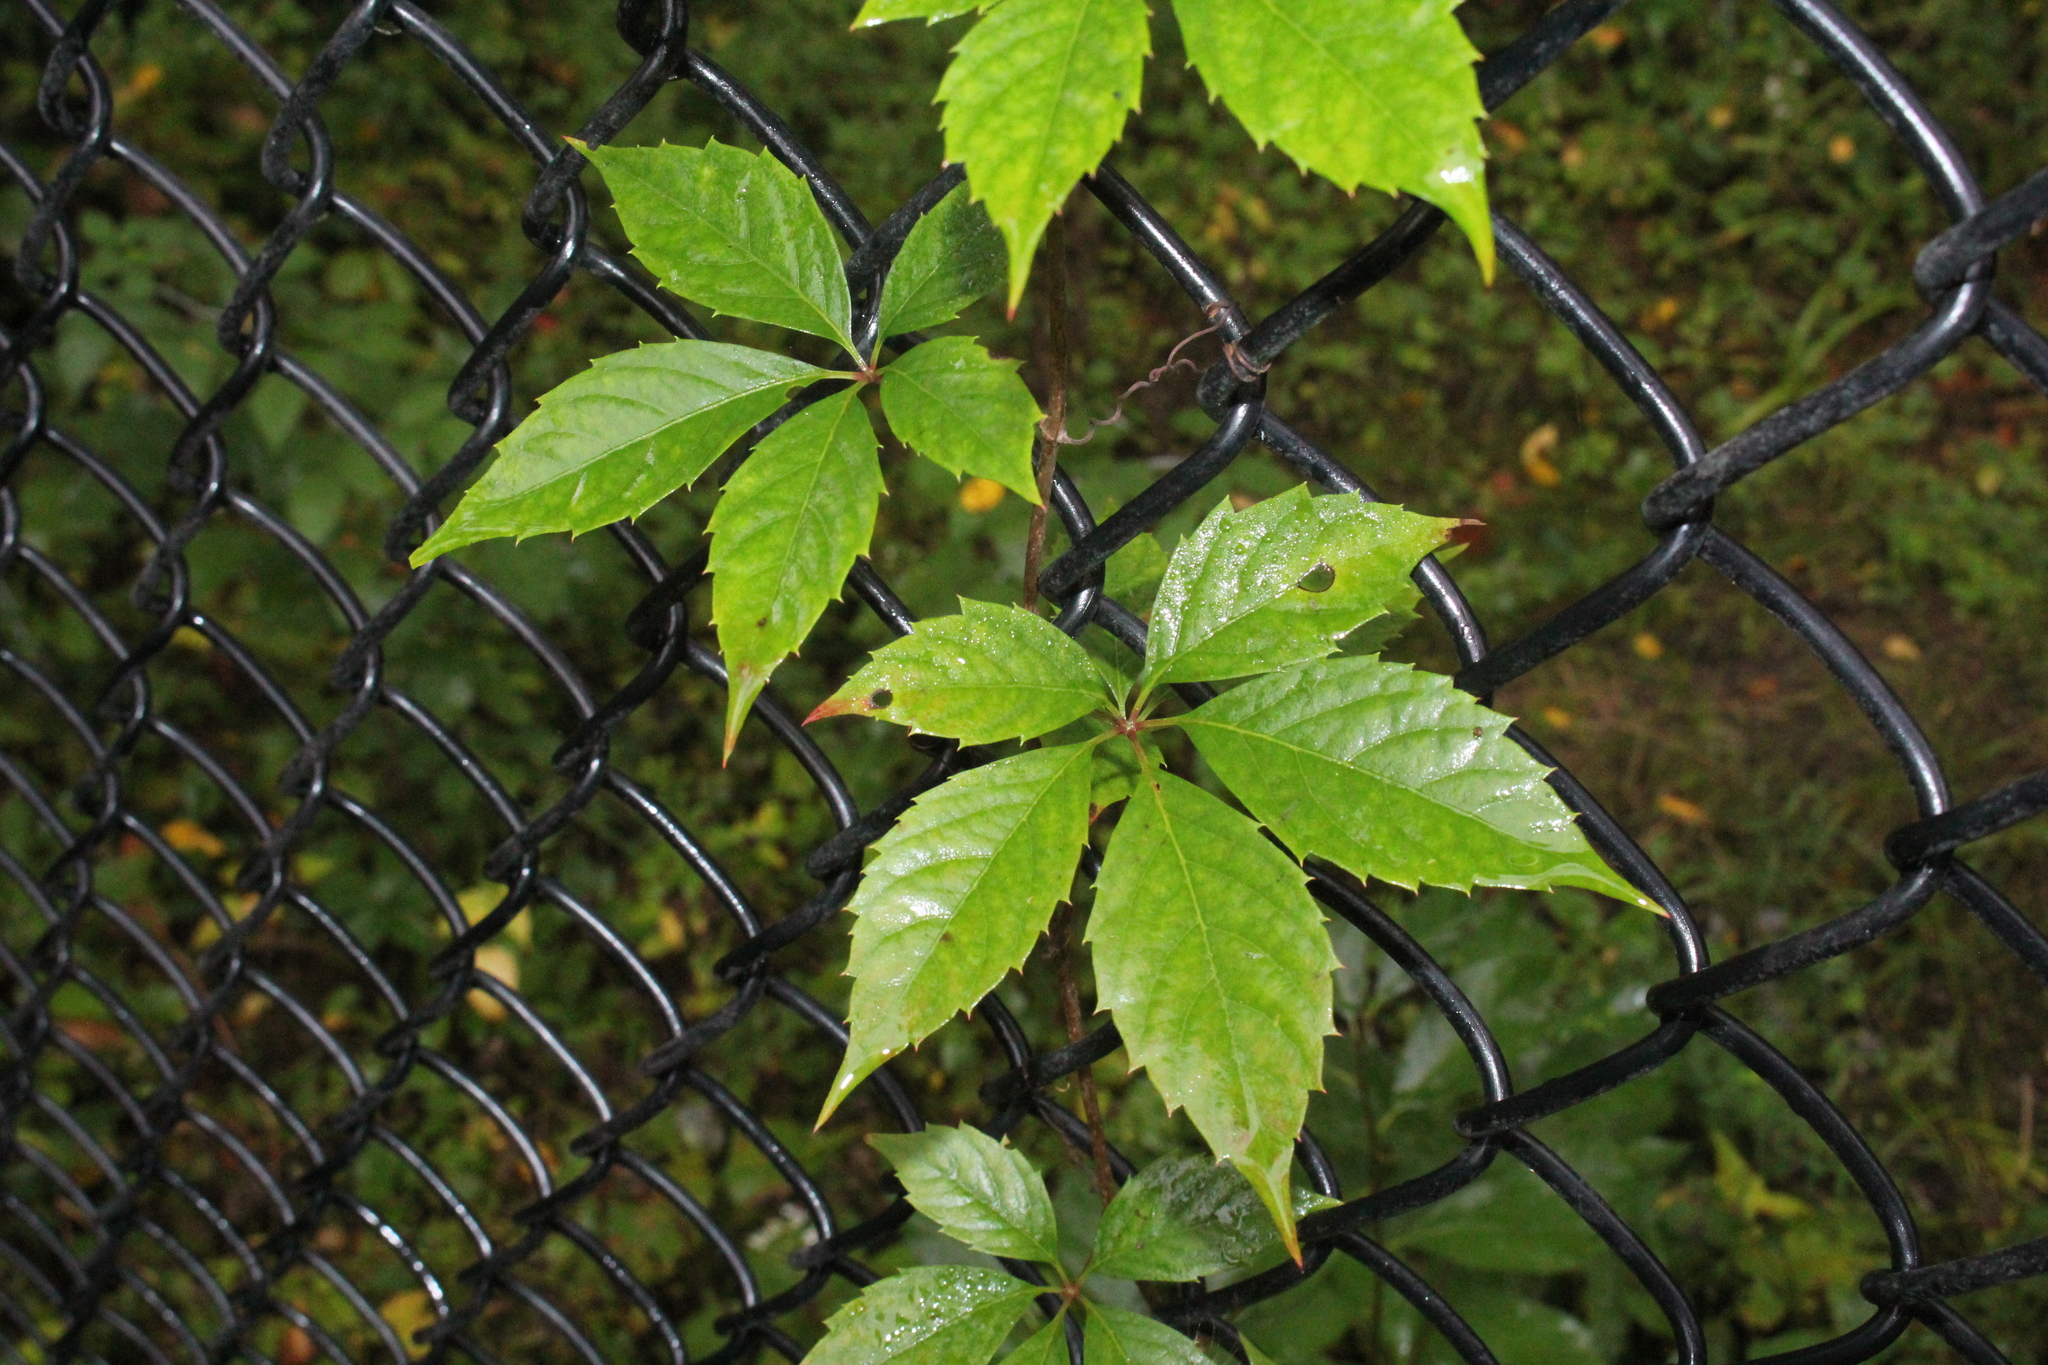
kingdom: Plantae
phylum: Tracheophyta
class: Magnoliopsida
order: Vitales
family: Vitaceae
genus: Parthenocissus
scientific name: Parthenocissus quinquefolia
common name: Virginia-creeper
